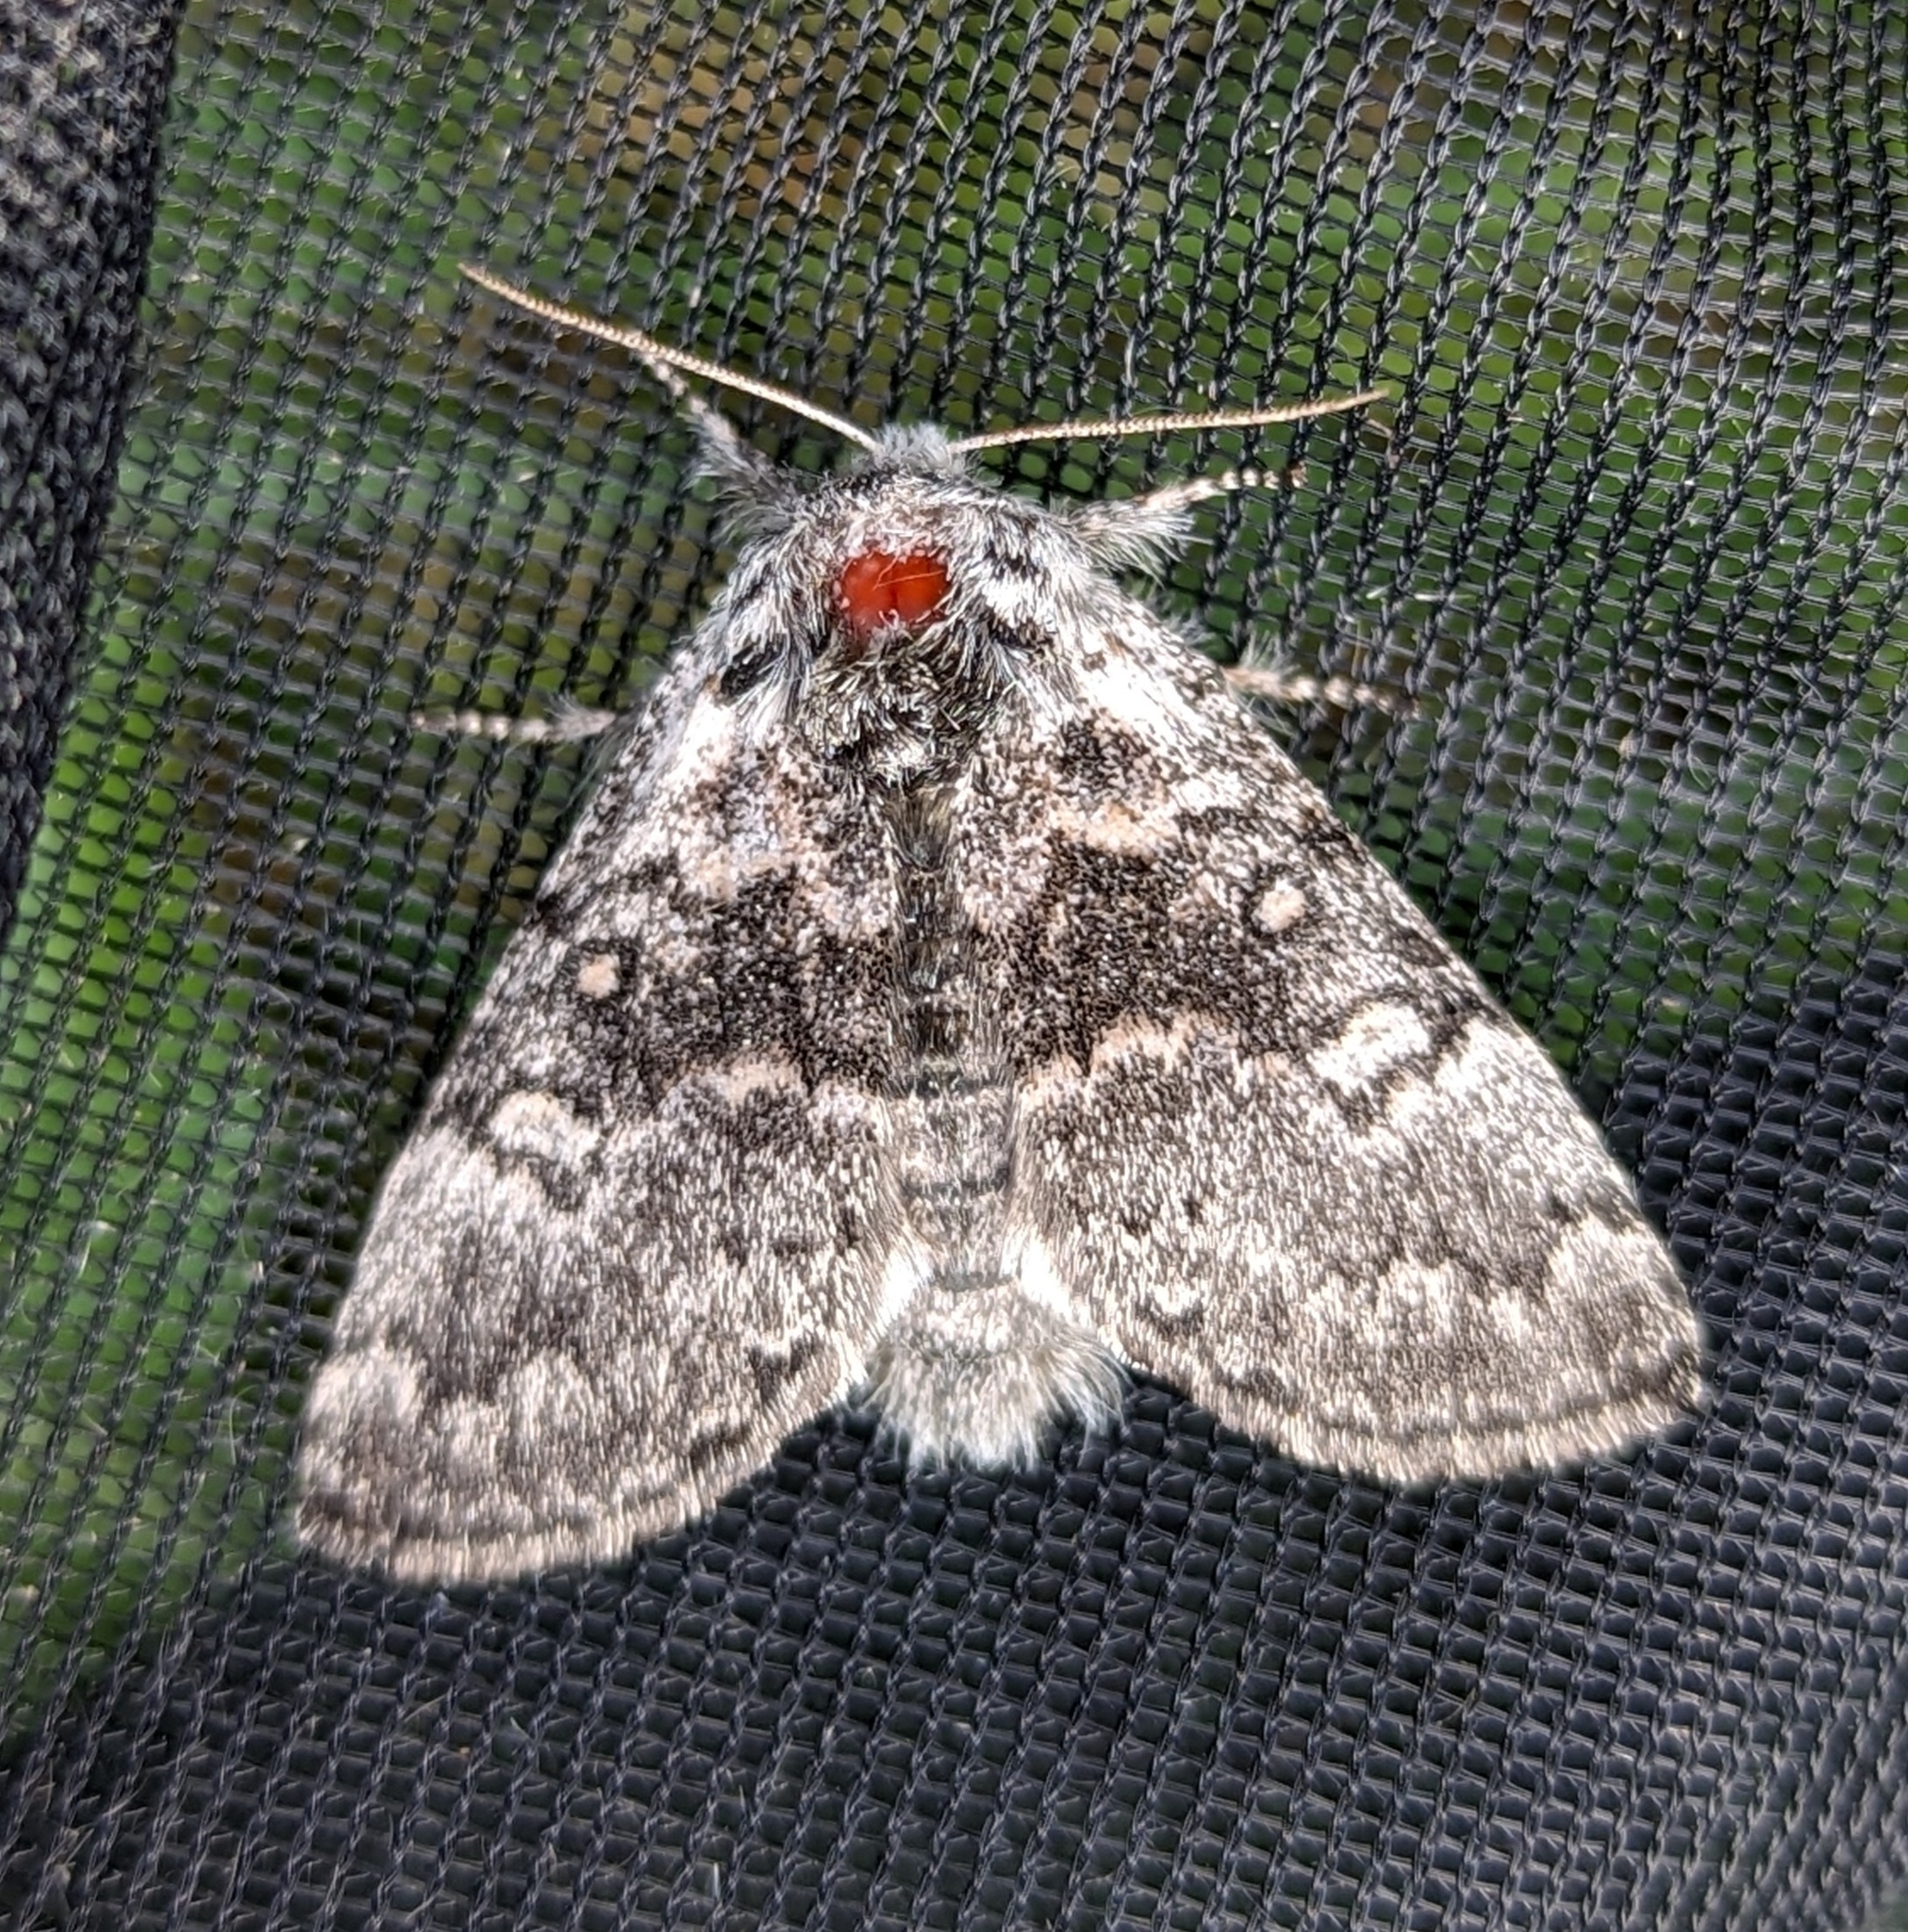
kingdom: Animalia
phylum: Arthropoda
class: Insecta
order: Lepidoptera
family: Noctuidae
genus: Colocasia
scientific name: Colocasia propinquilinea
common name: Close-banded demas
